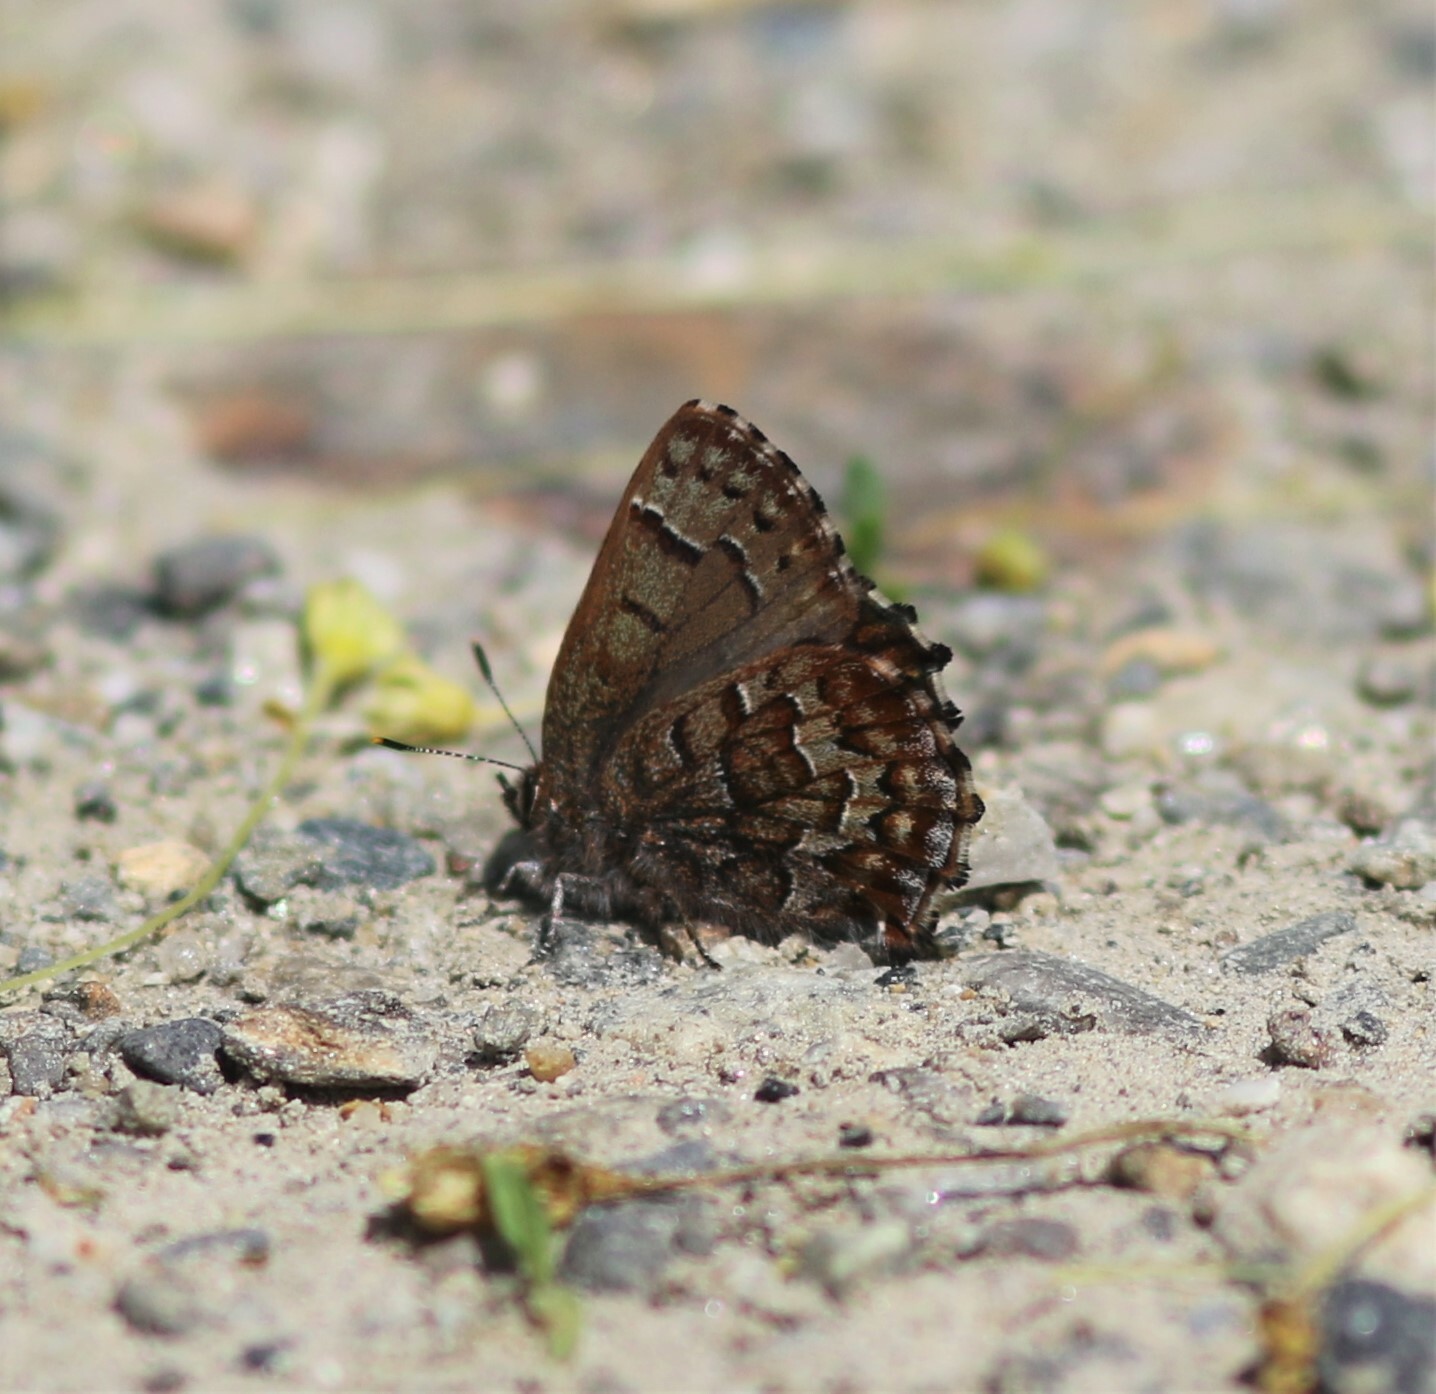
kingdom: Animalia
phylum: Arthropoda
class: Insecta
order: Lepidoptera
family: Lycaenidae
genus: Incisalia
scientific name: Incisalia niphon
